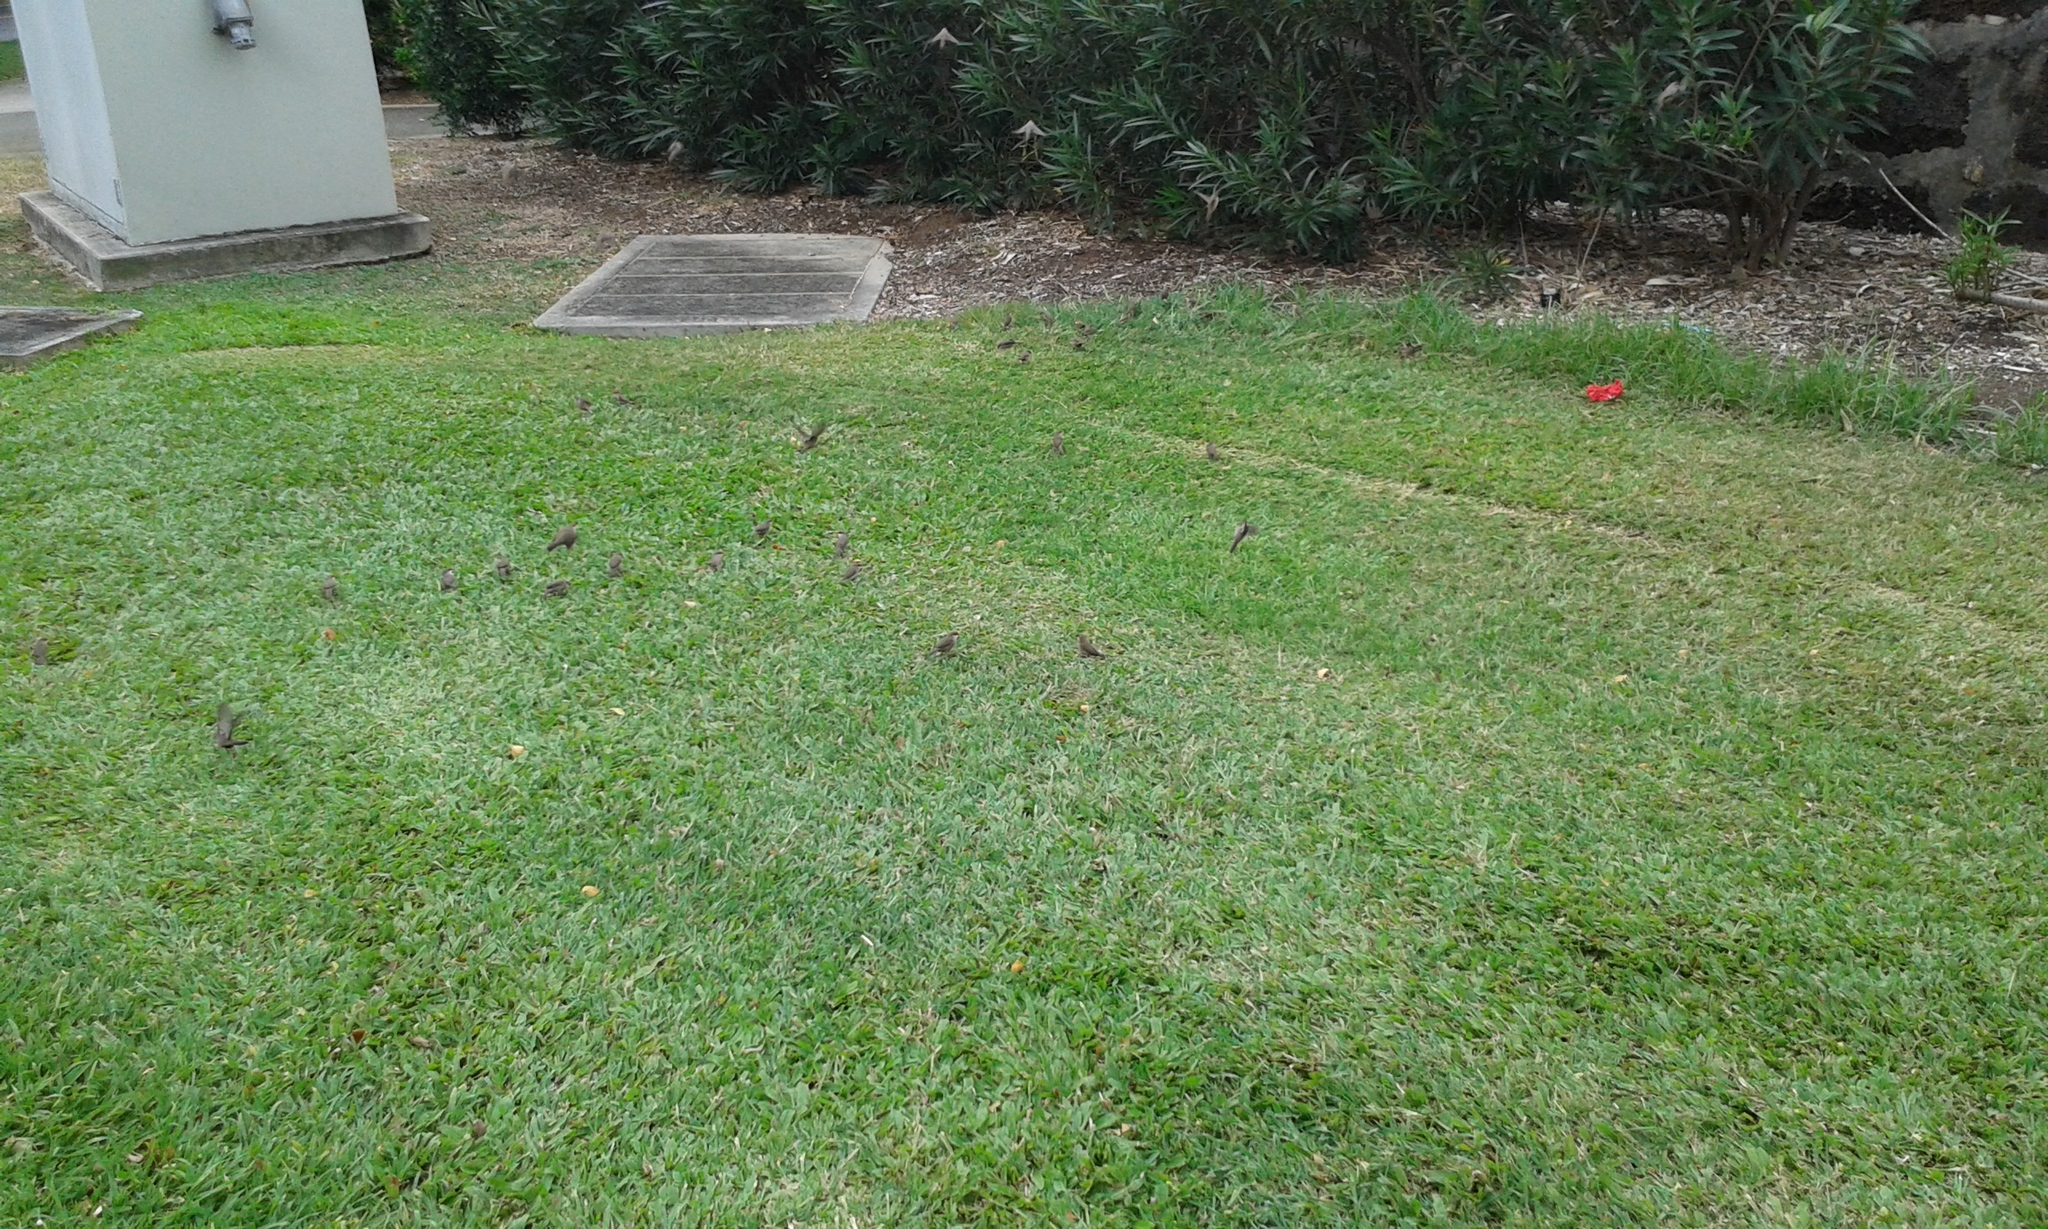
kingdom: Animalia
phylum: Chordata
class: Aves
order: Passeriformes
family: Estrildidae
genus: Estrilda
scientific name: Estrilda astrild
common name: Common waxbill
